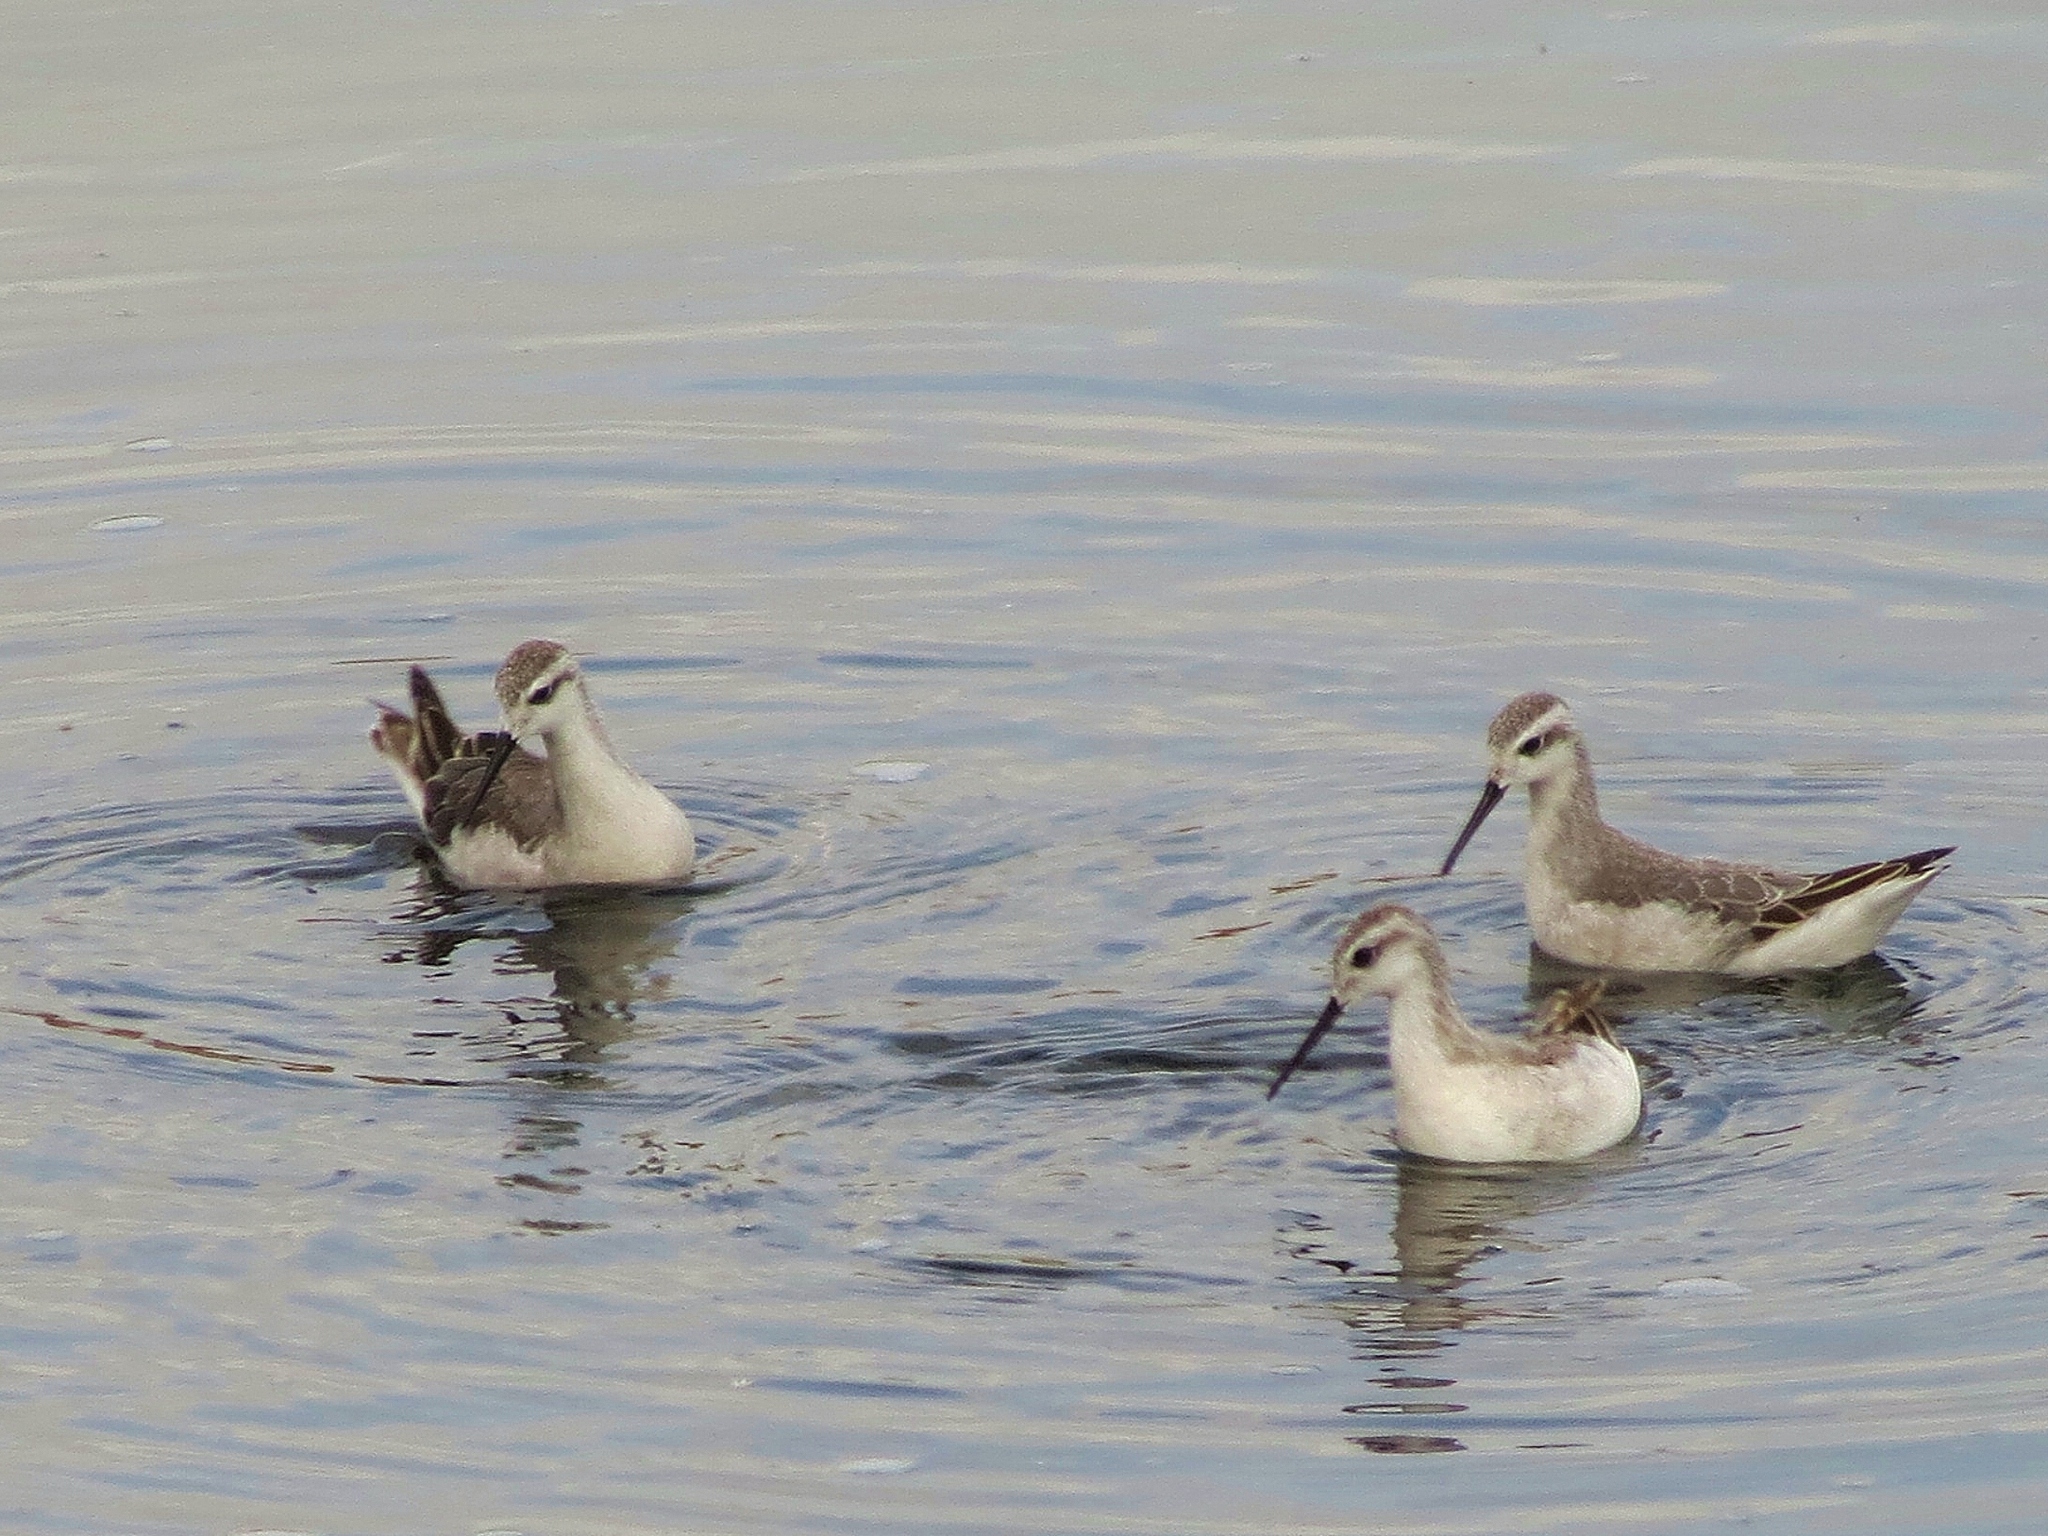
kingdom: Animalia
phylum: Chordata
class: Aves
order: Charadriiformes
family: Scolopacidae
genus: Phalaropus
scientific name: Phalaropus tricolor
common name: Wilson's phalarope
